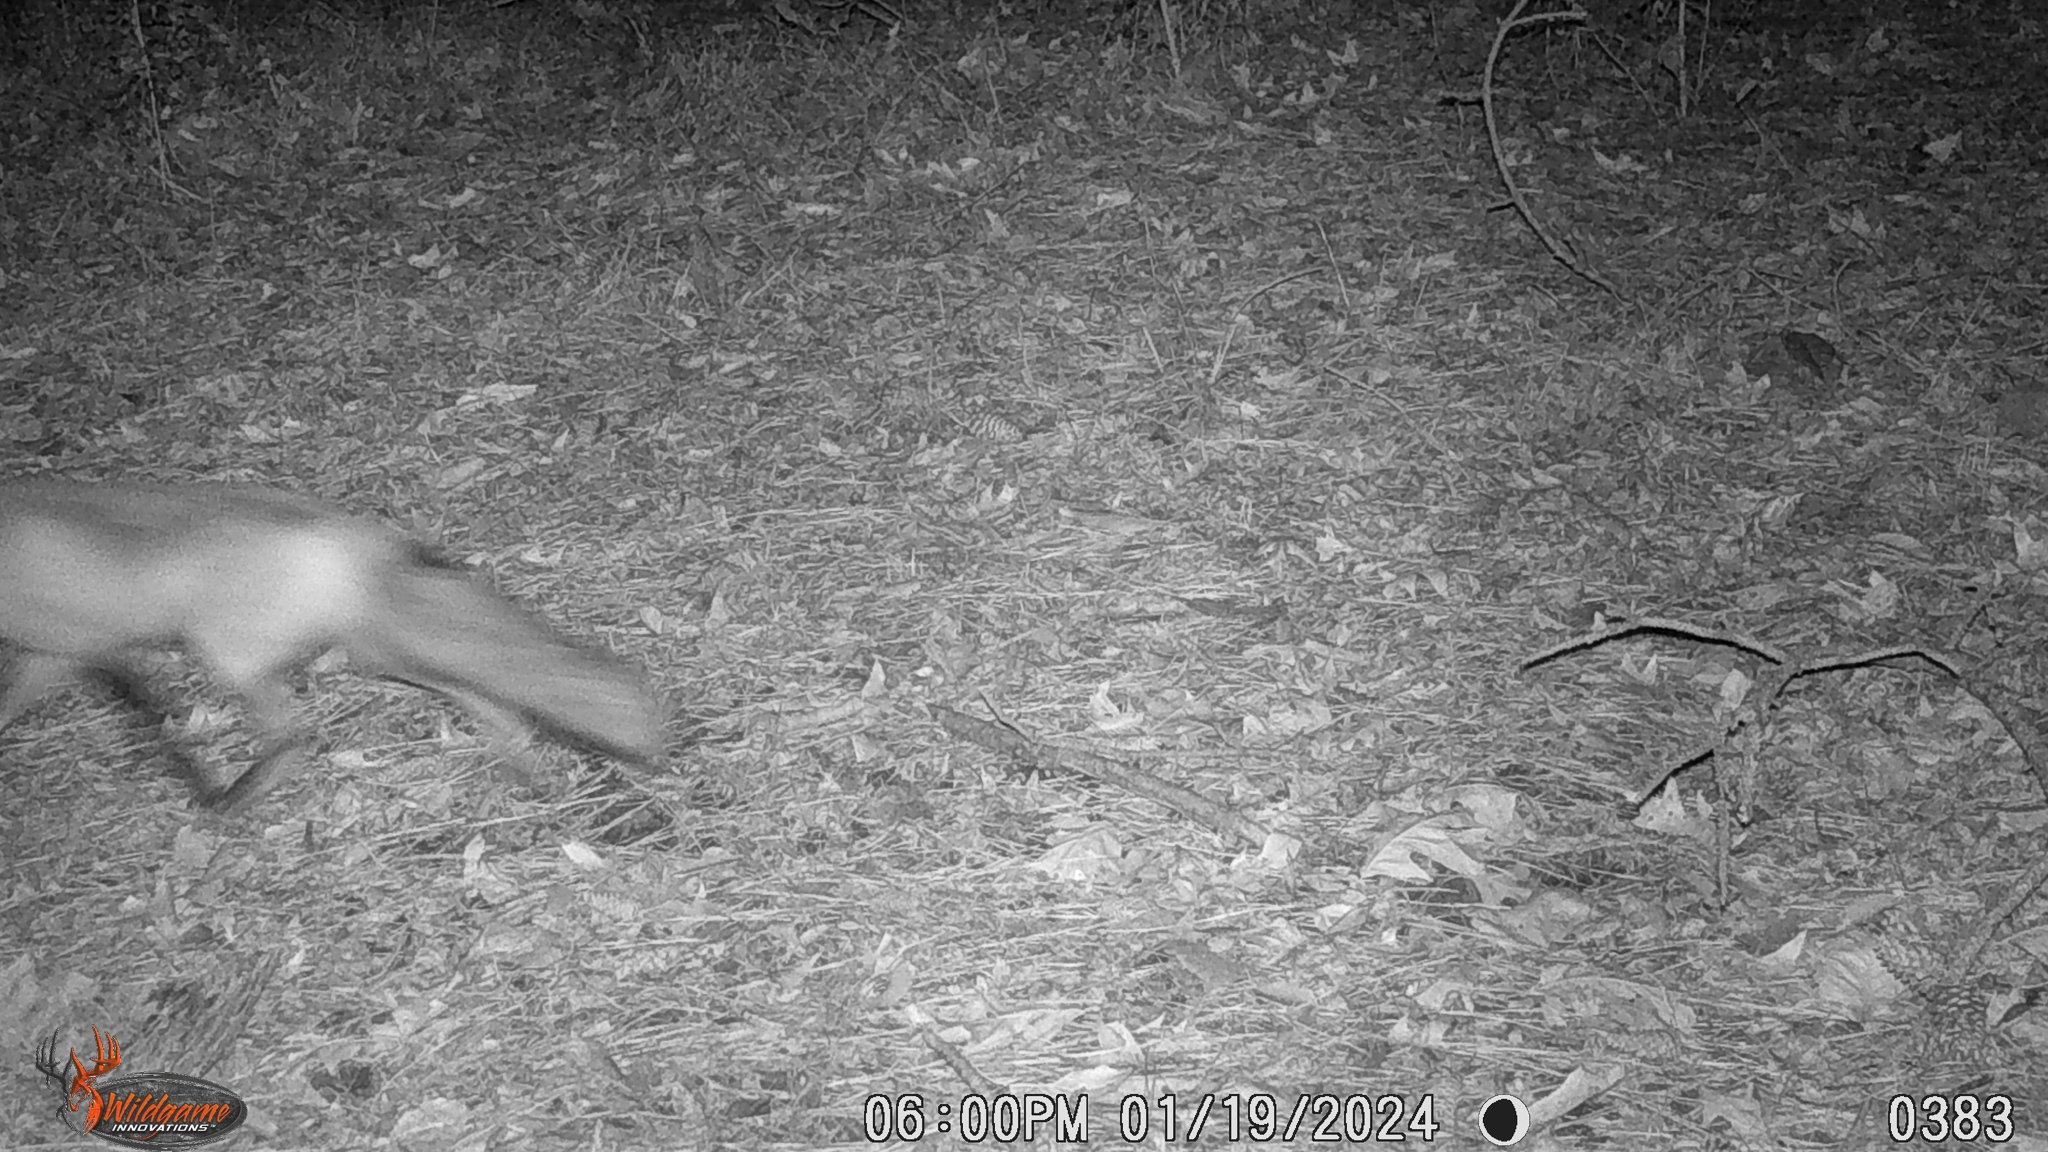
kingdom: Animalia
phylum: Chordata
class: Mammalia
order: Carnivora
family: Canidae
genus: Vulpes
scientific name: Vulpes vulpes
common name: Red fox
